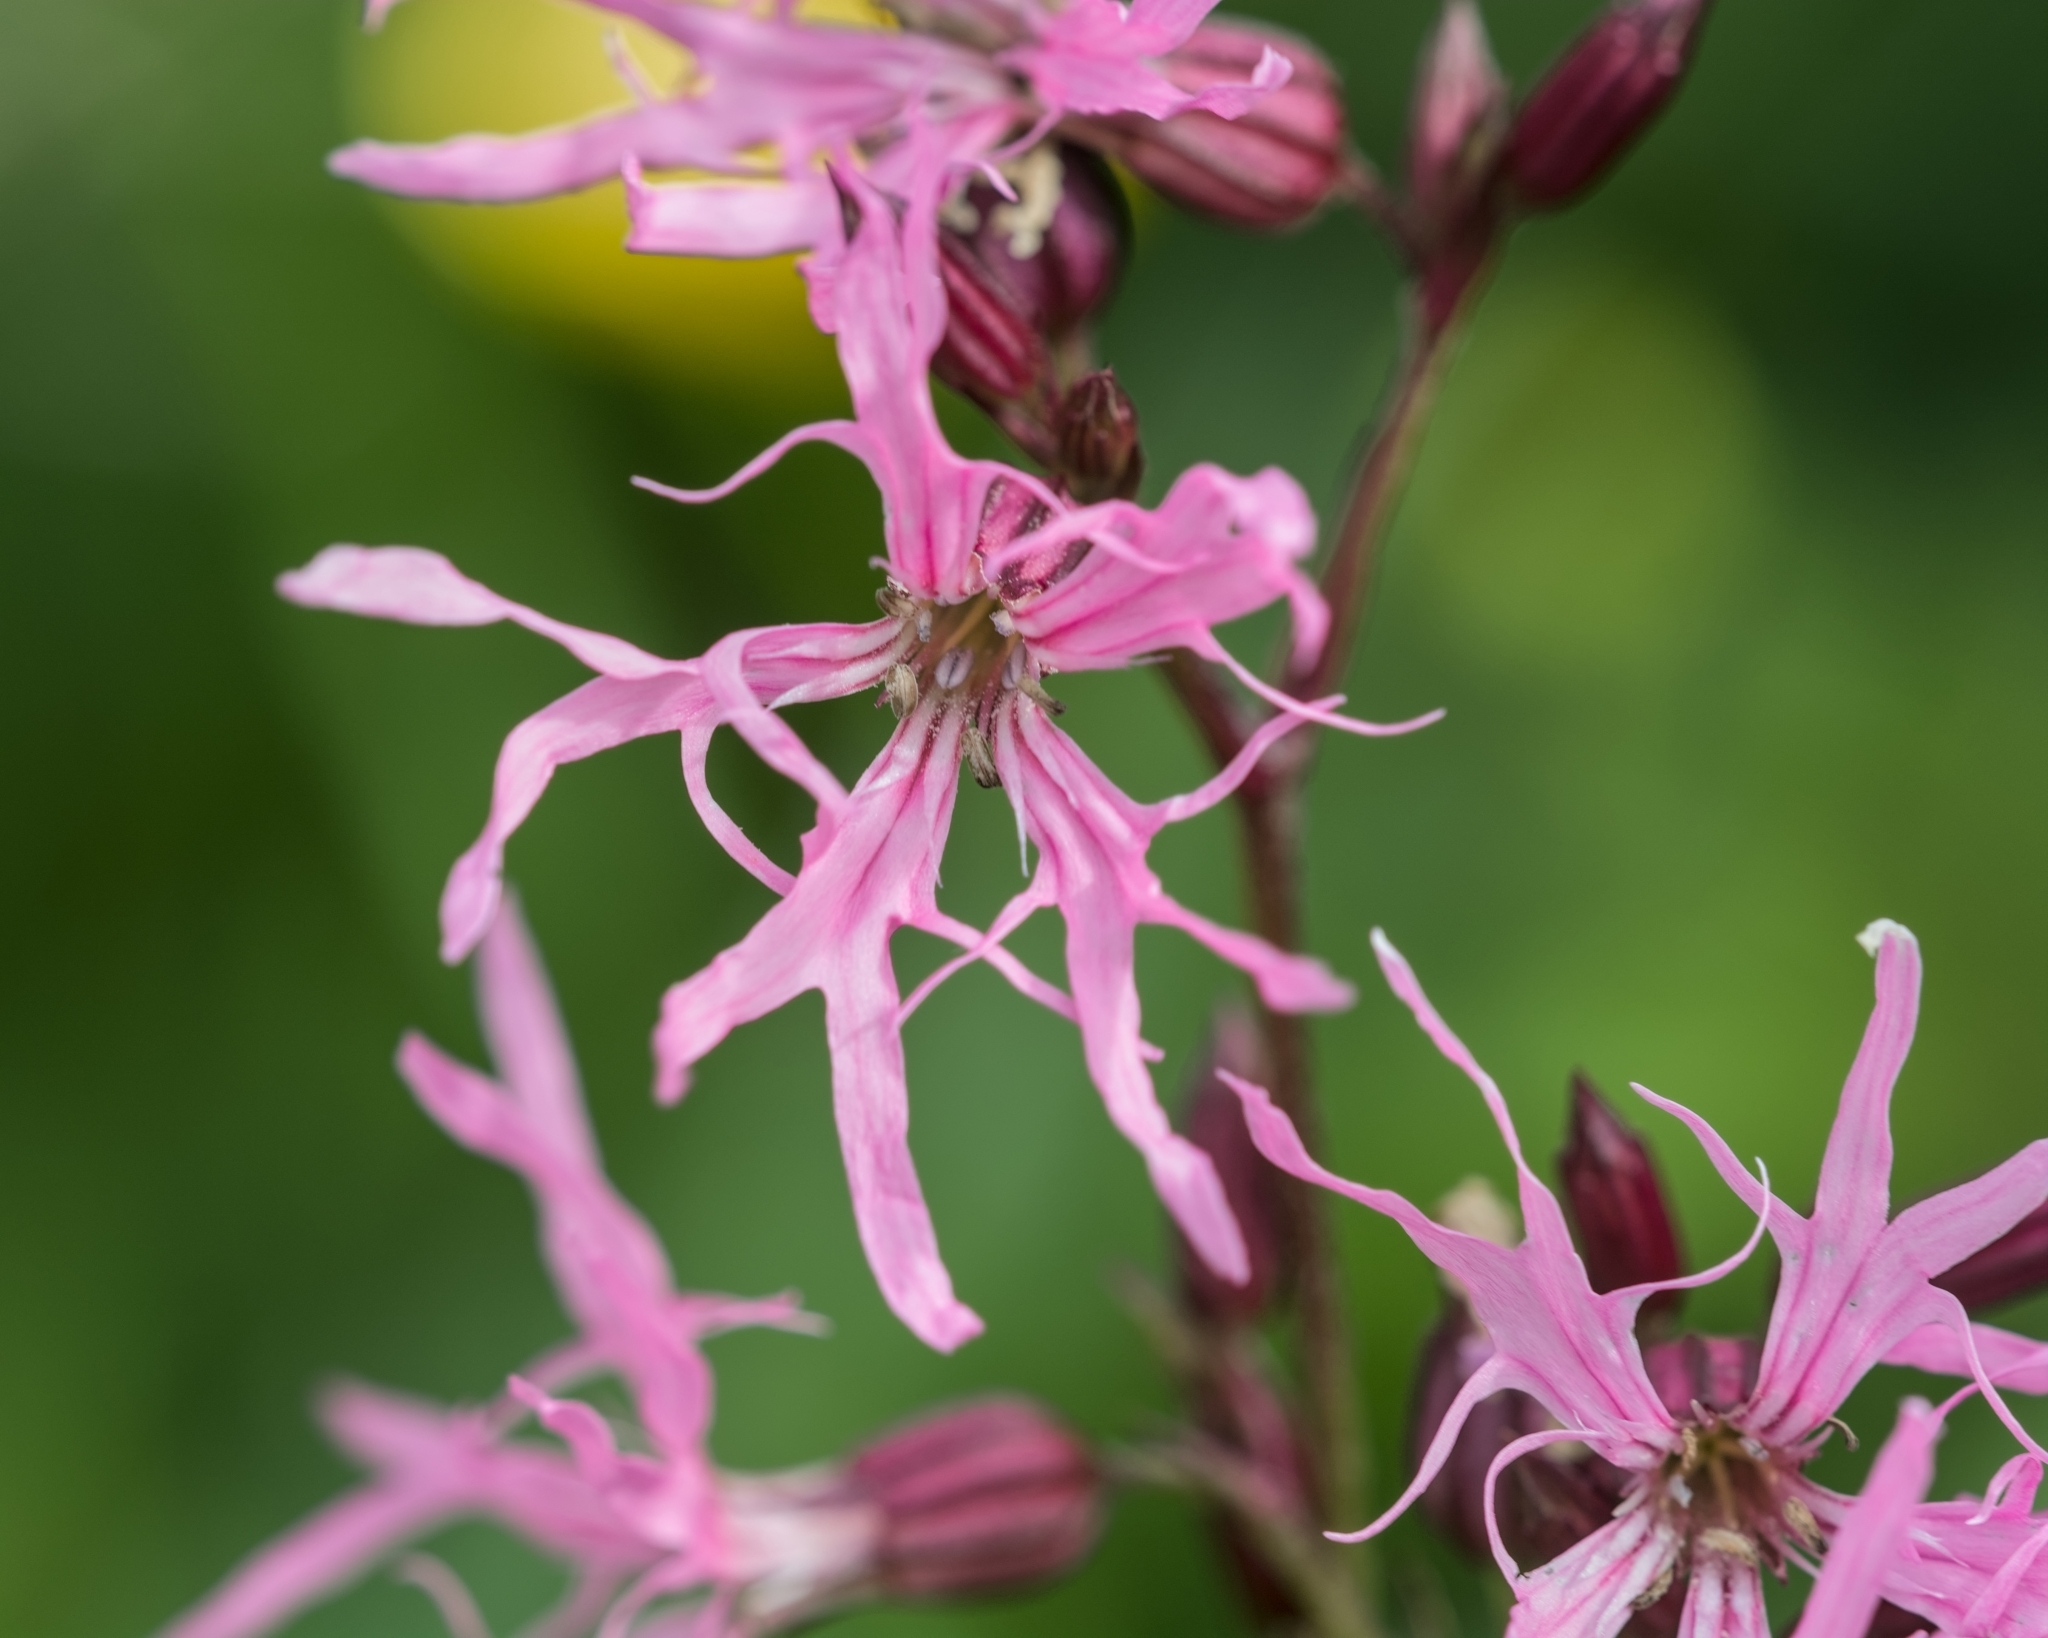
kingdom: Plantae
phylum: Tracheophyta
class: Magnoliopsida
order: Caryophyllales
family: Caryophyllaceae
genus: Silene
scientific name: Silene flos-cuculi
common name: Ragged-robin
